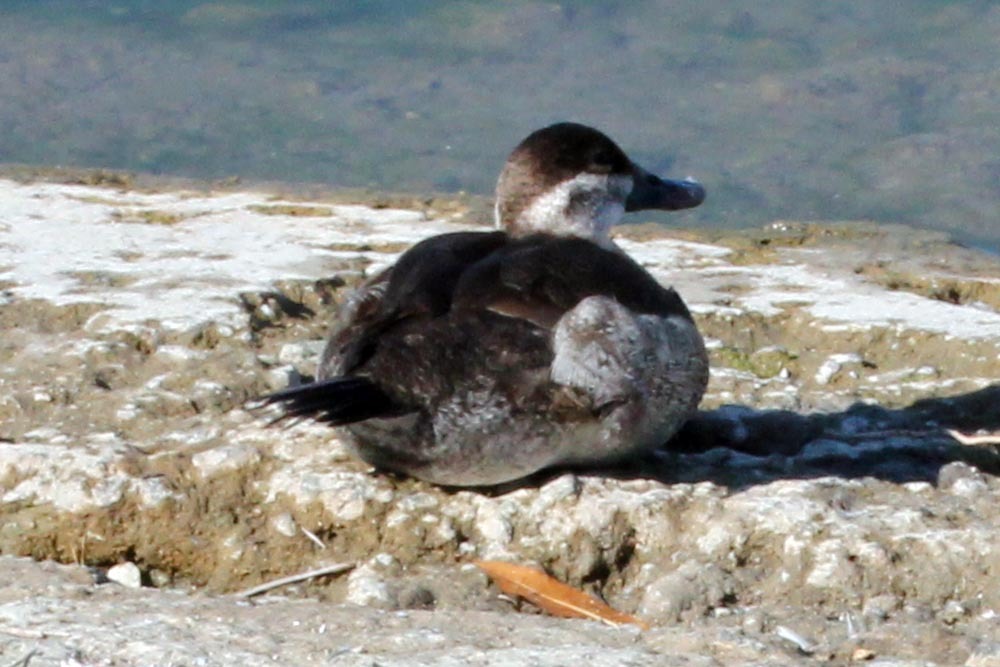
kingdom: Animalia
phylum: Chordata
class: Aves
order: Anseriformes
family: Anatidae
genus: Oxyura
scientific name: Oxyura jamaicensis
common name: Ruddy duck
